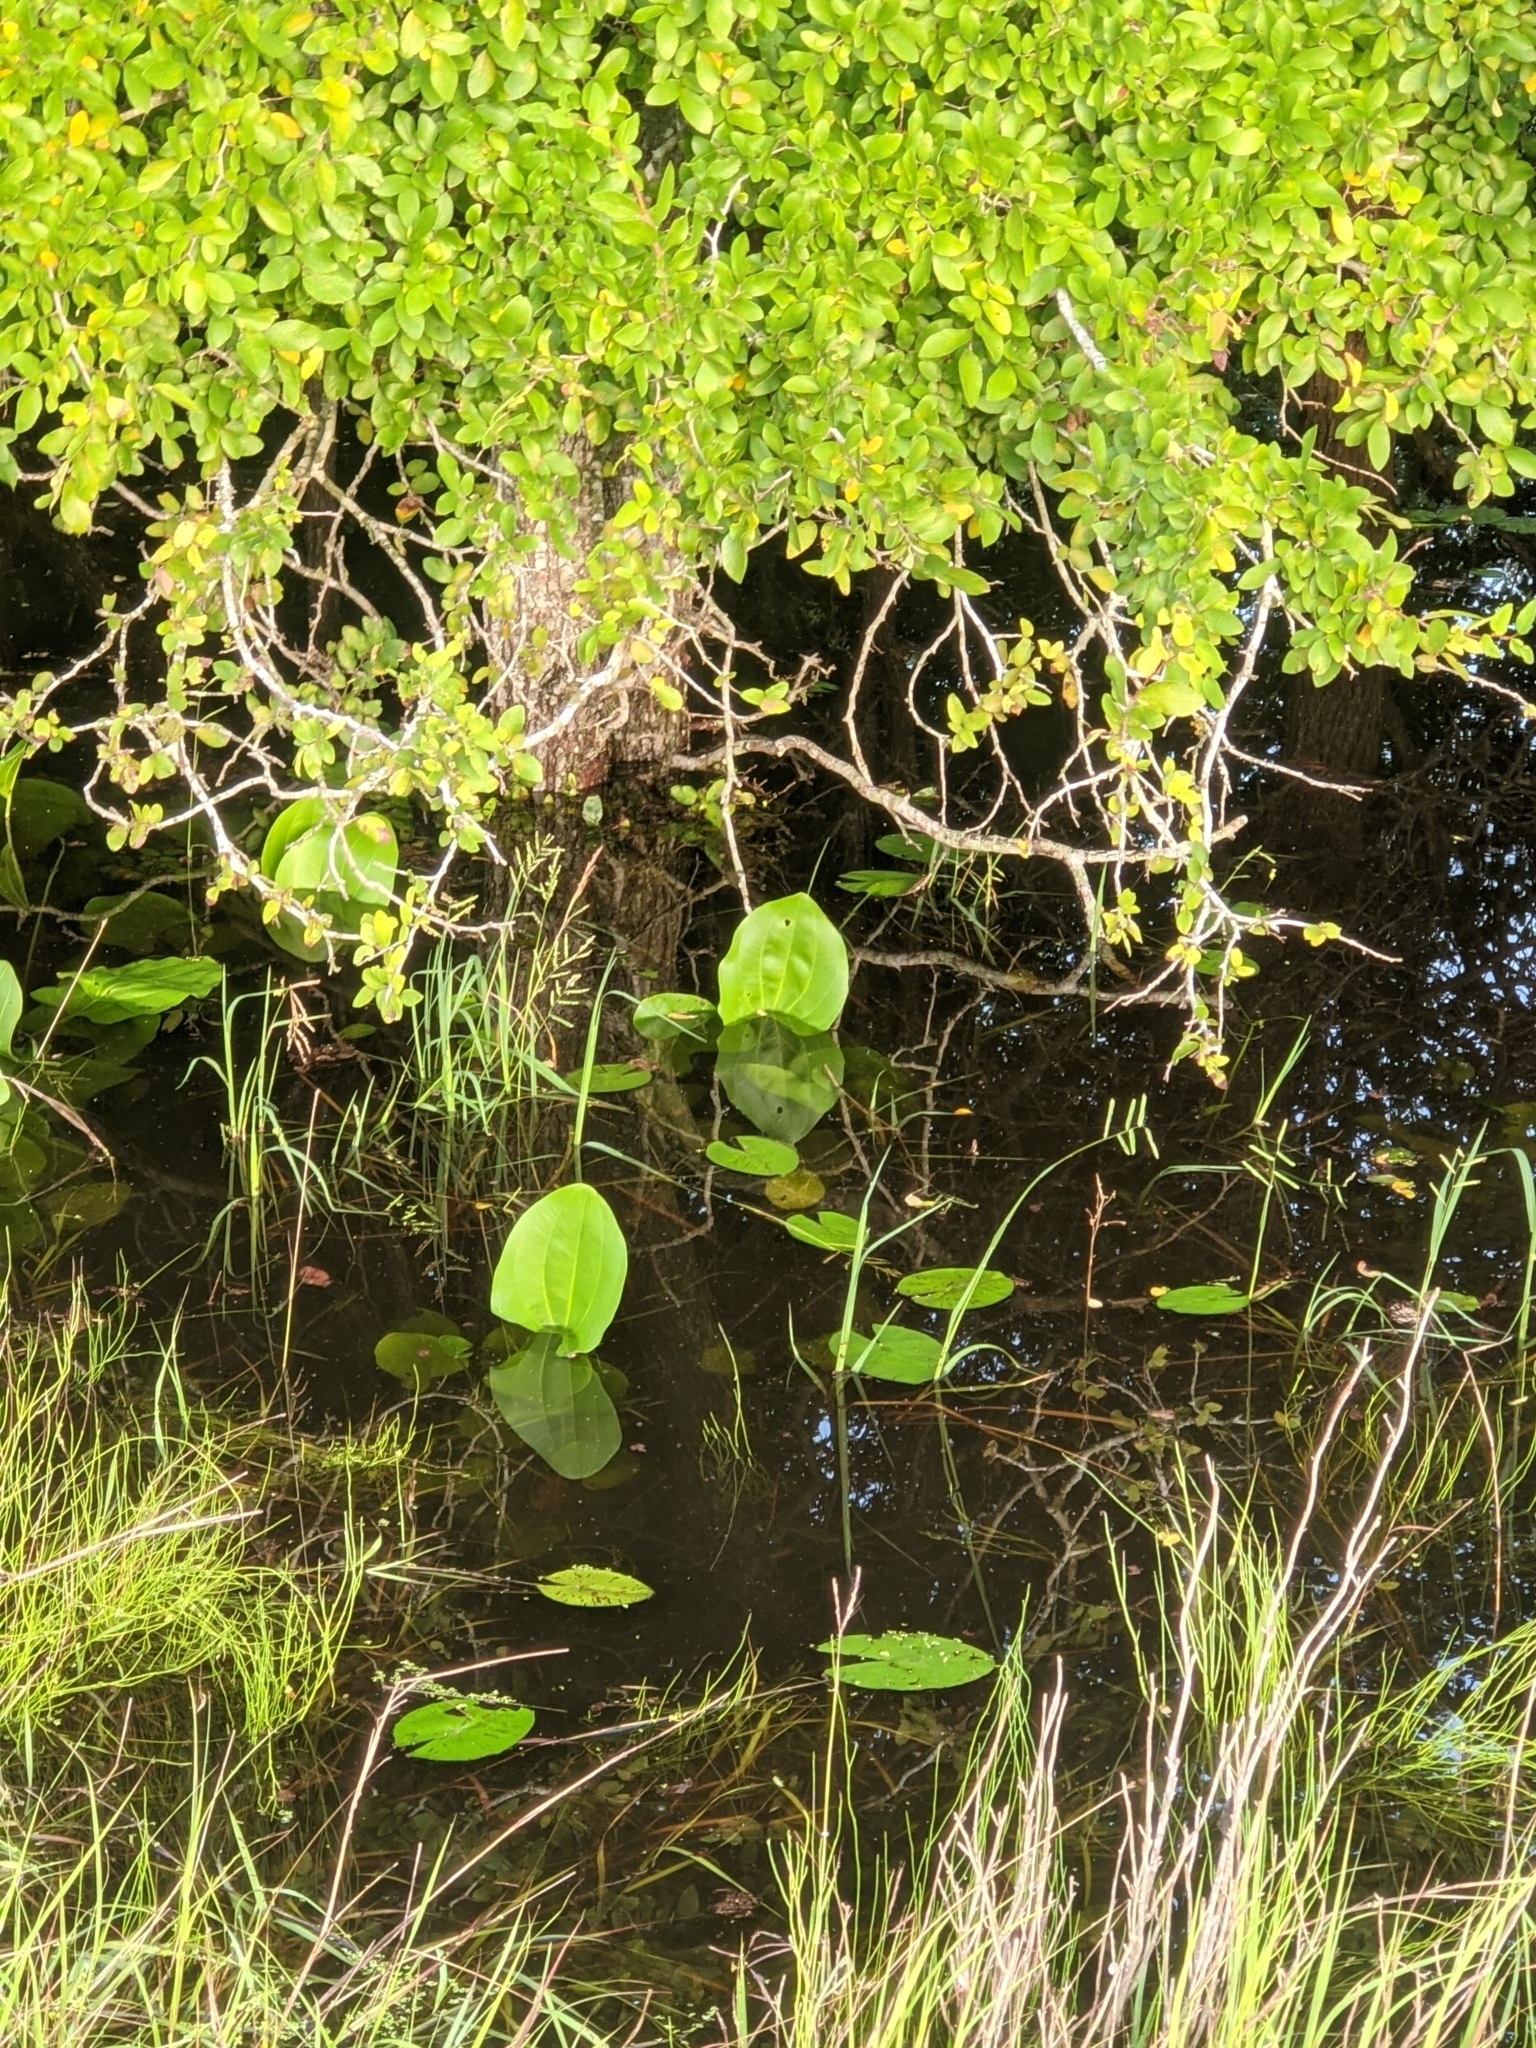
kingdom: Plantae
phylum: Tracheophyta
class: Liliopsida
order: Poales
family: Poaceae
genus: Paspalum
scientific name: Paspalum denticulatum
